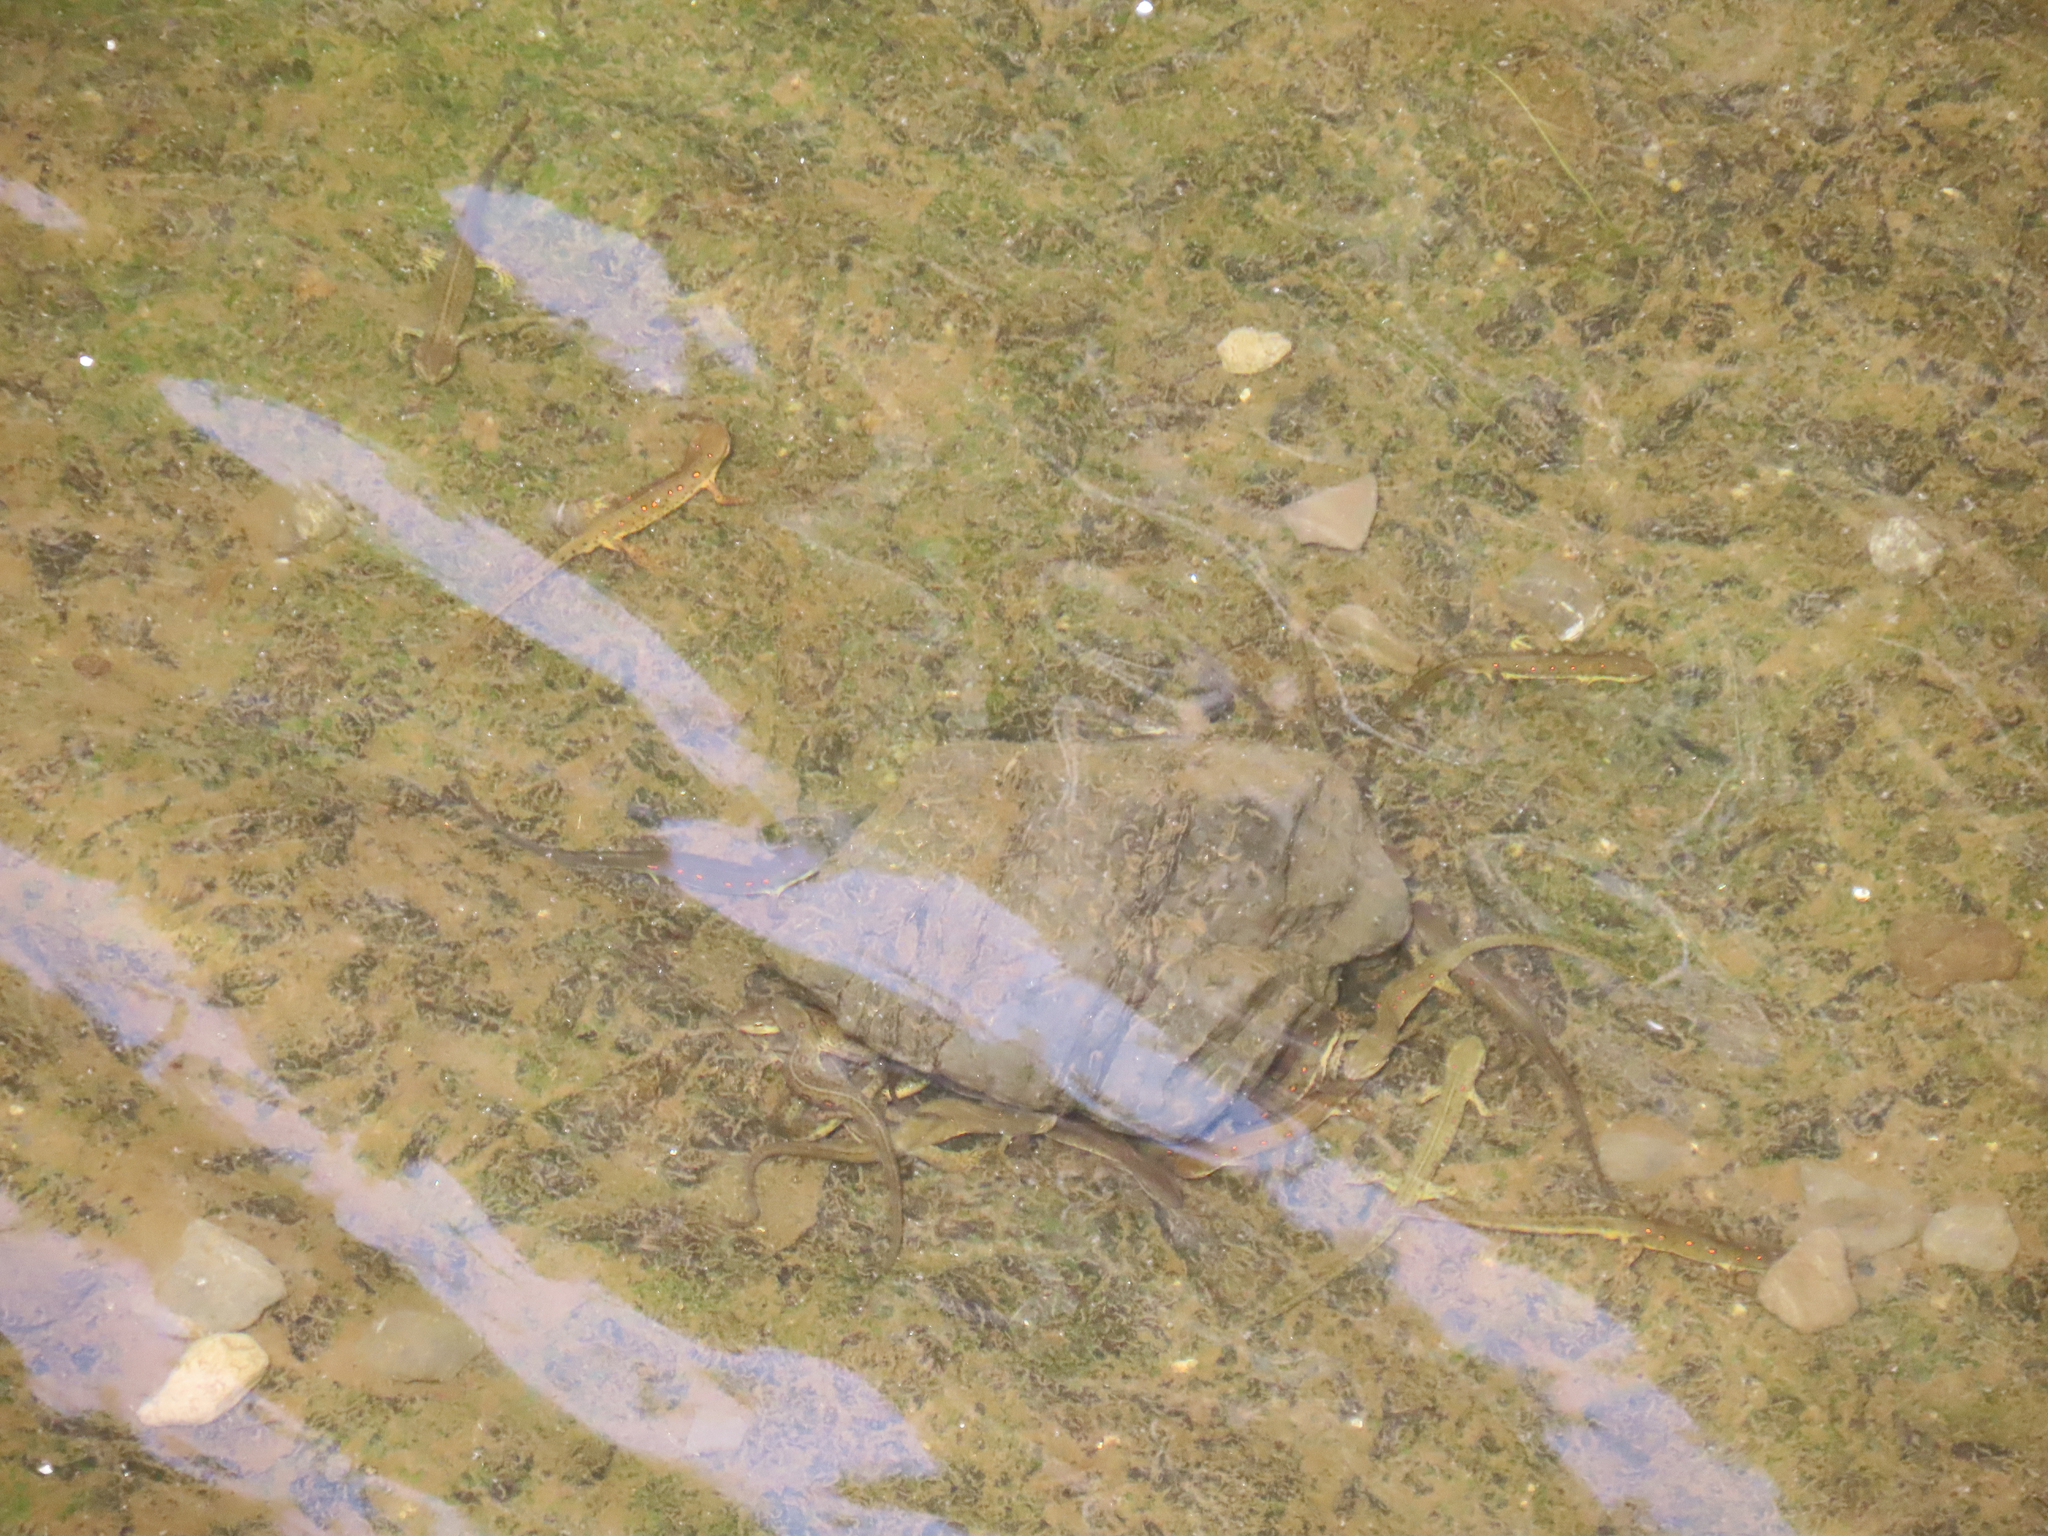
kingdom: Animalia
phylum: Chordata
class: Amphibia
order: Caudata
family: Salamandridae
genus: Notophthalmus
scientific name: Notophthalmus viridescens
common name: Eastern newt
